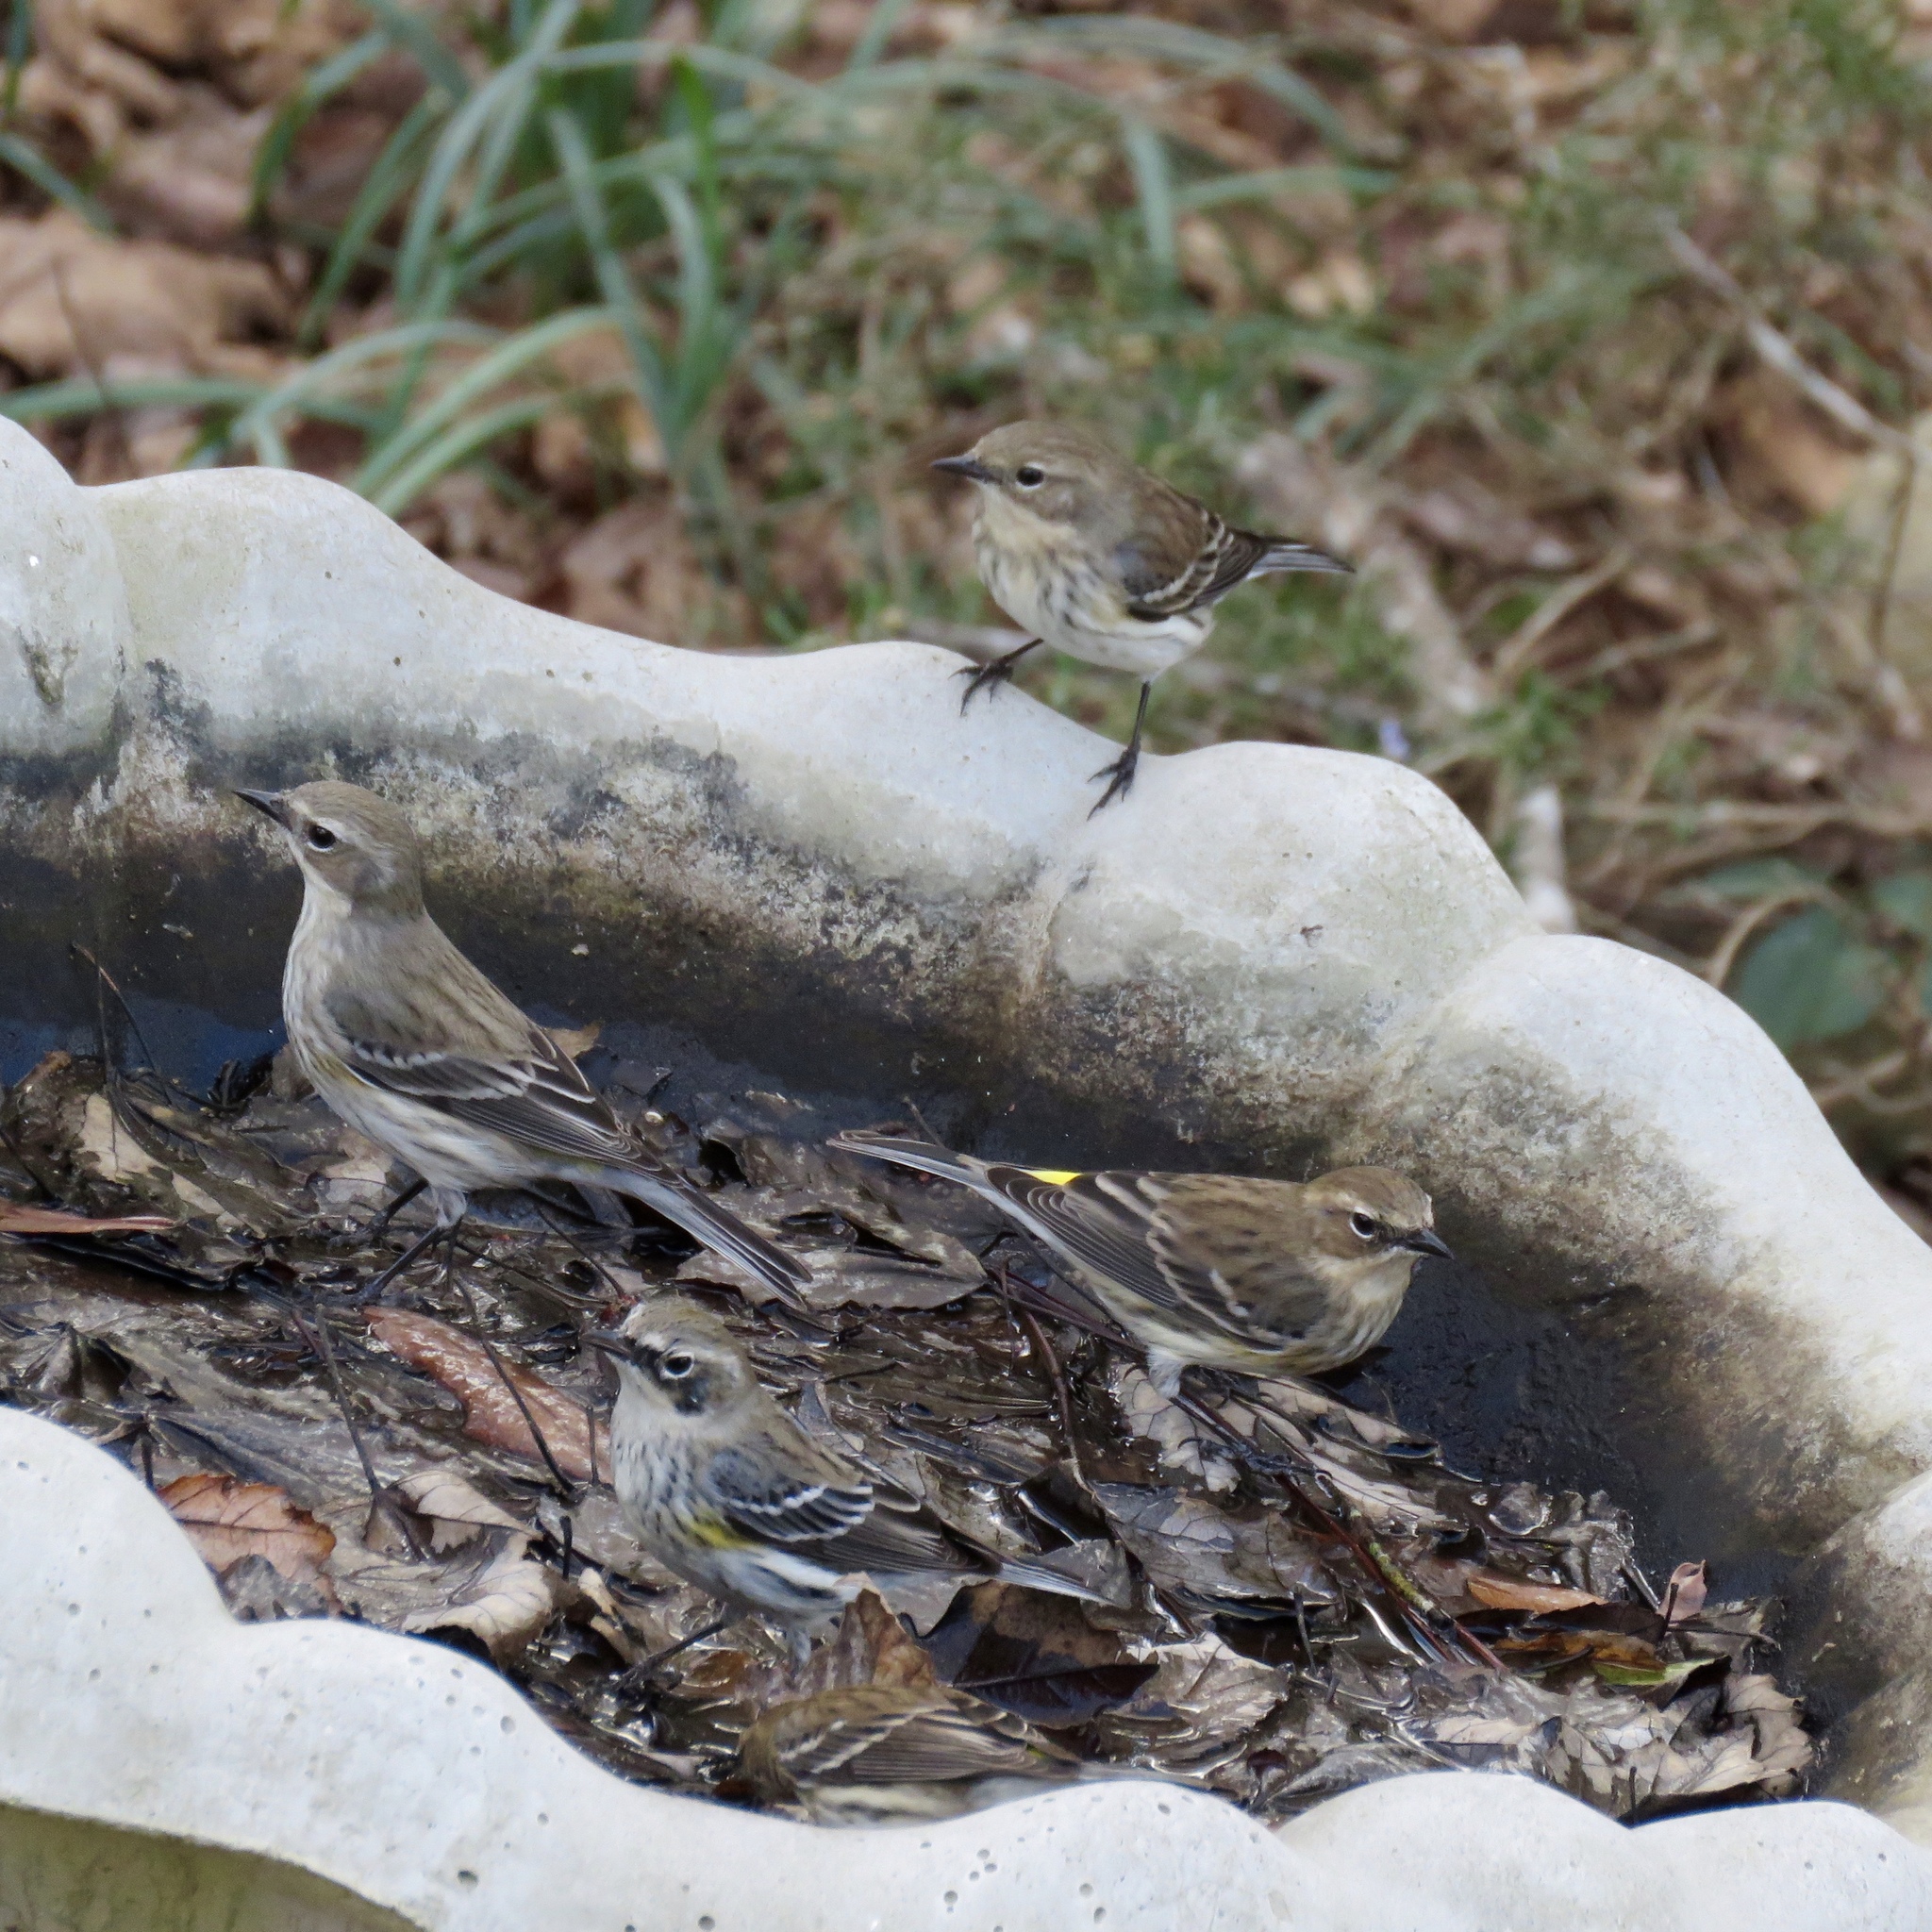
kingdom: Animalia
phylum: Chordata
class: Aves
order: Passeriformes
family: Parulidae
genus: Setophaga
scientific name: Setophaga coronata
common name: Myrtle warbler
